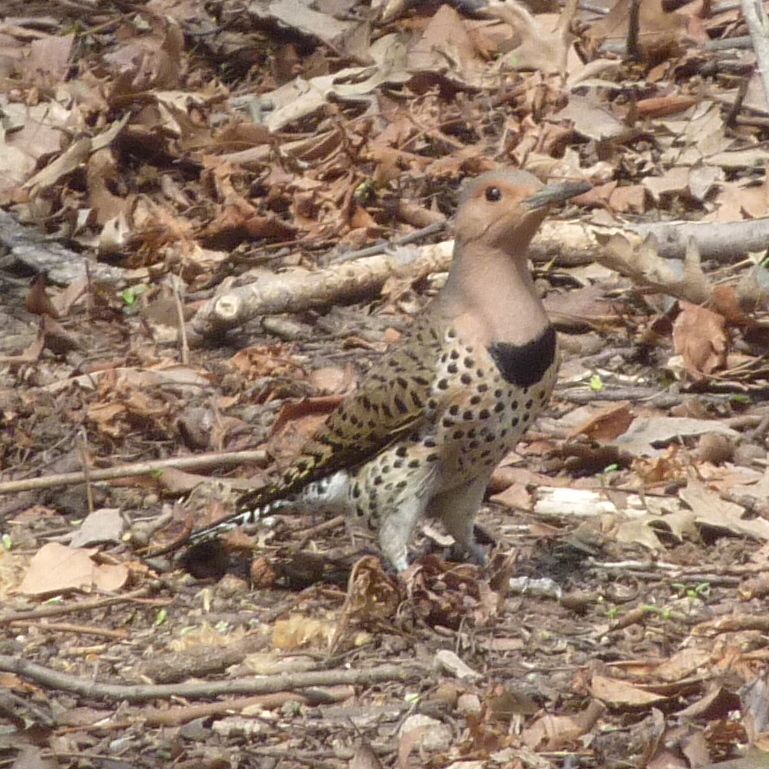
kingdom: Animalia
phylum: Chordata
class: Aves
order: Piciformes
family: Picidae
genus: Colaptes
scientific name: Colaptes auratus
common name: Northern flicker
